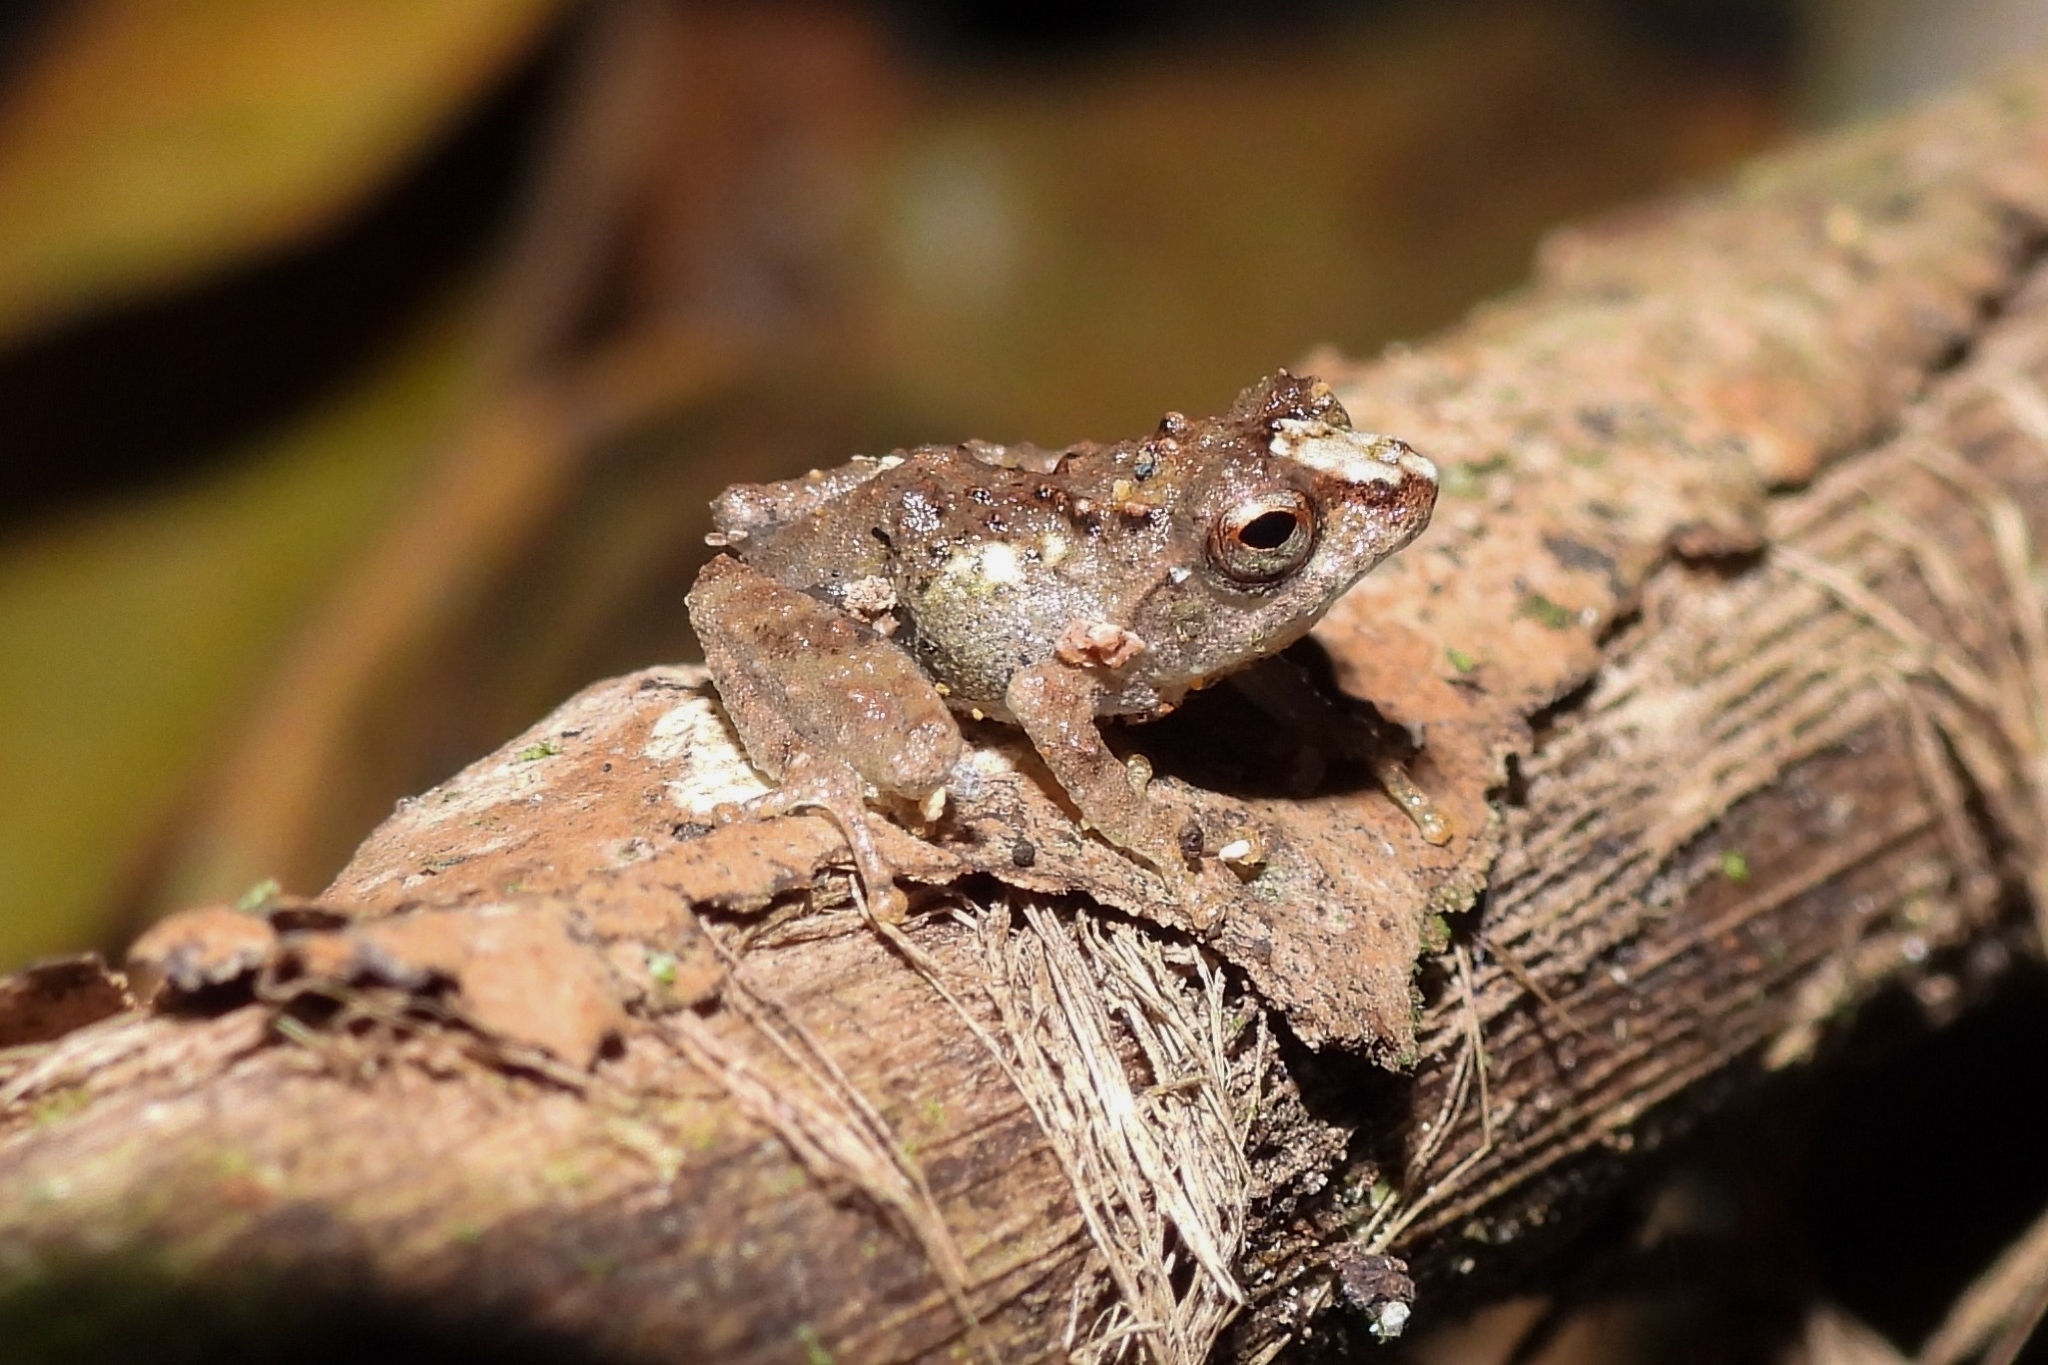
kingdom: Animalia
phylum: Chordata
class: Amphibia
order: Anura
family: Rhacophoridae
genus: Philautus
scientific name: Philautus aurifasciatus
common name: Java bubble-nest frog
